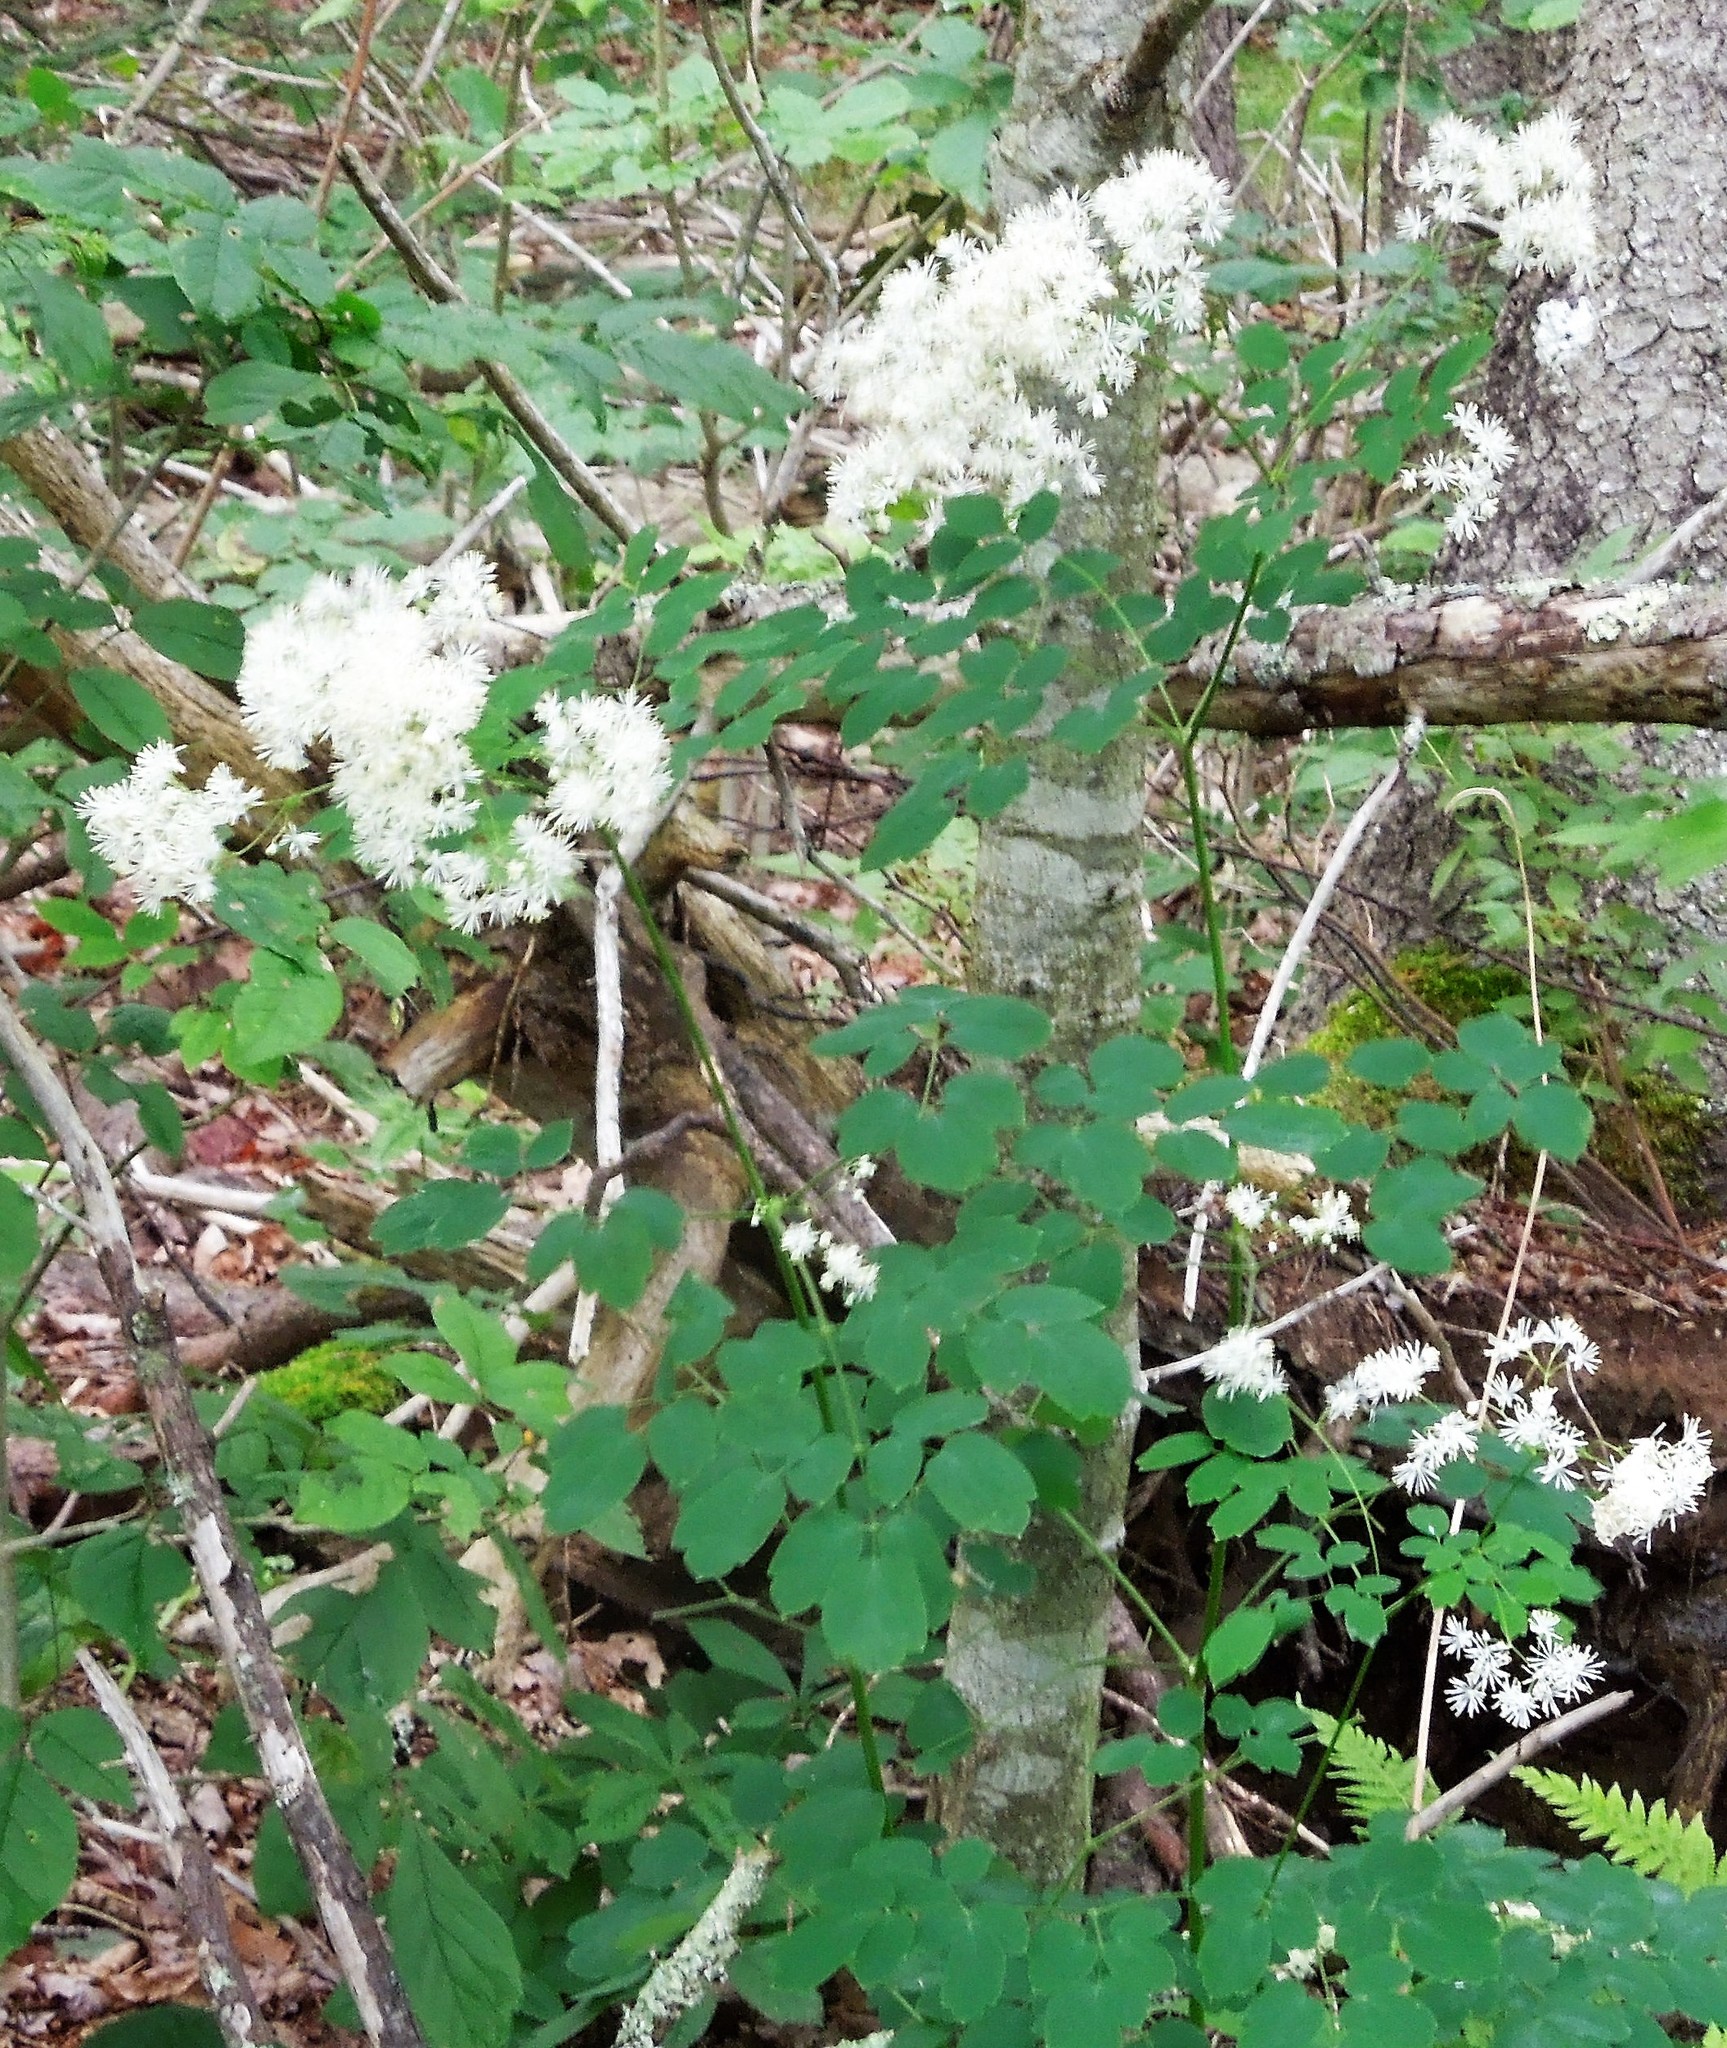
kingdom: Plantae
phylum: Tracheophyta
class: Magnoliopsida
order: Ranunculales
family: Ranunculaceae
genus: Thalictrum
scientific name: Thalictrum pubescens
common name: King-of-the-meadow
